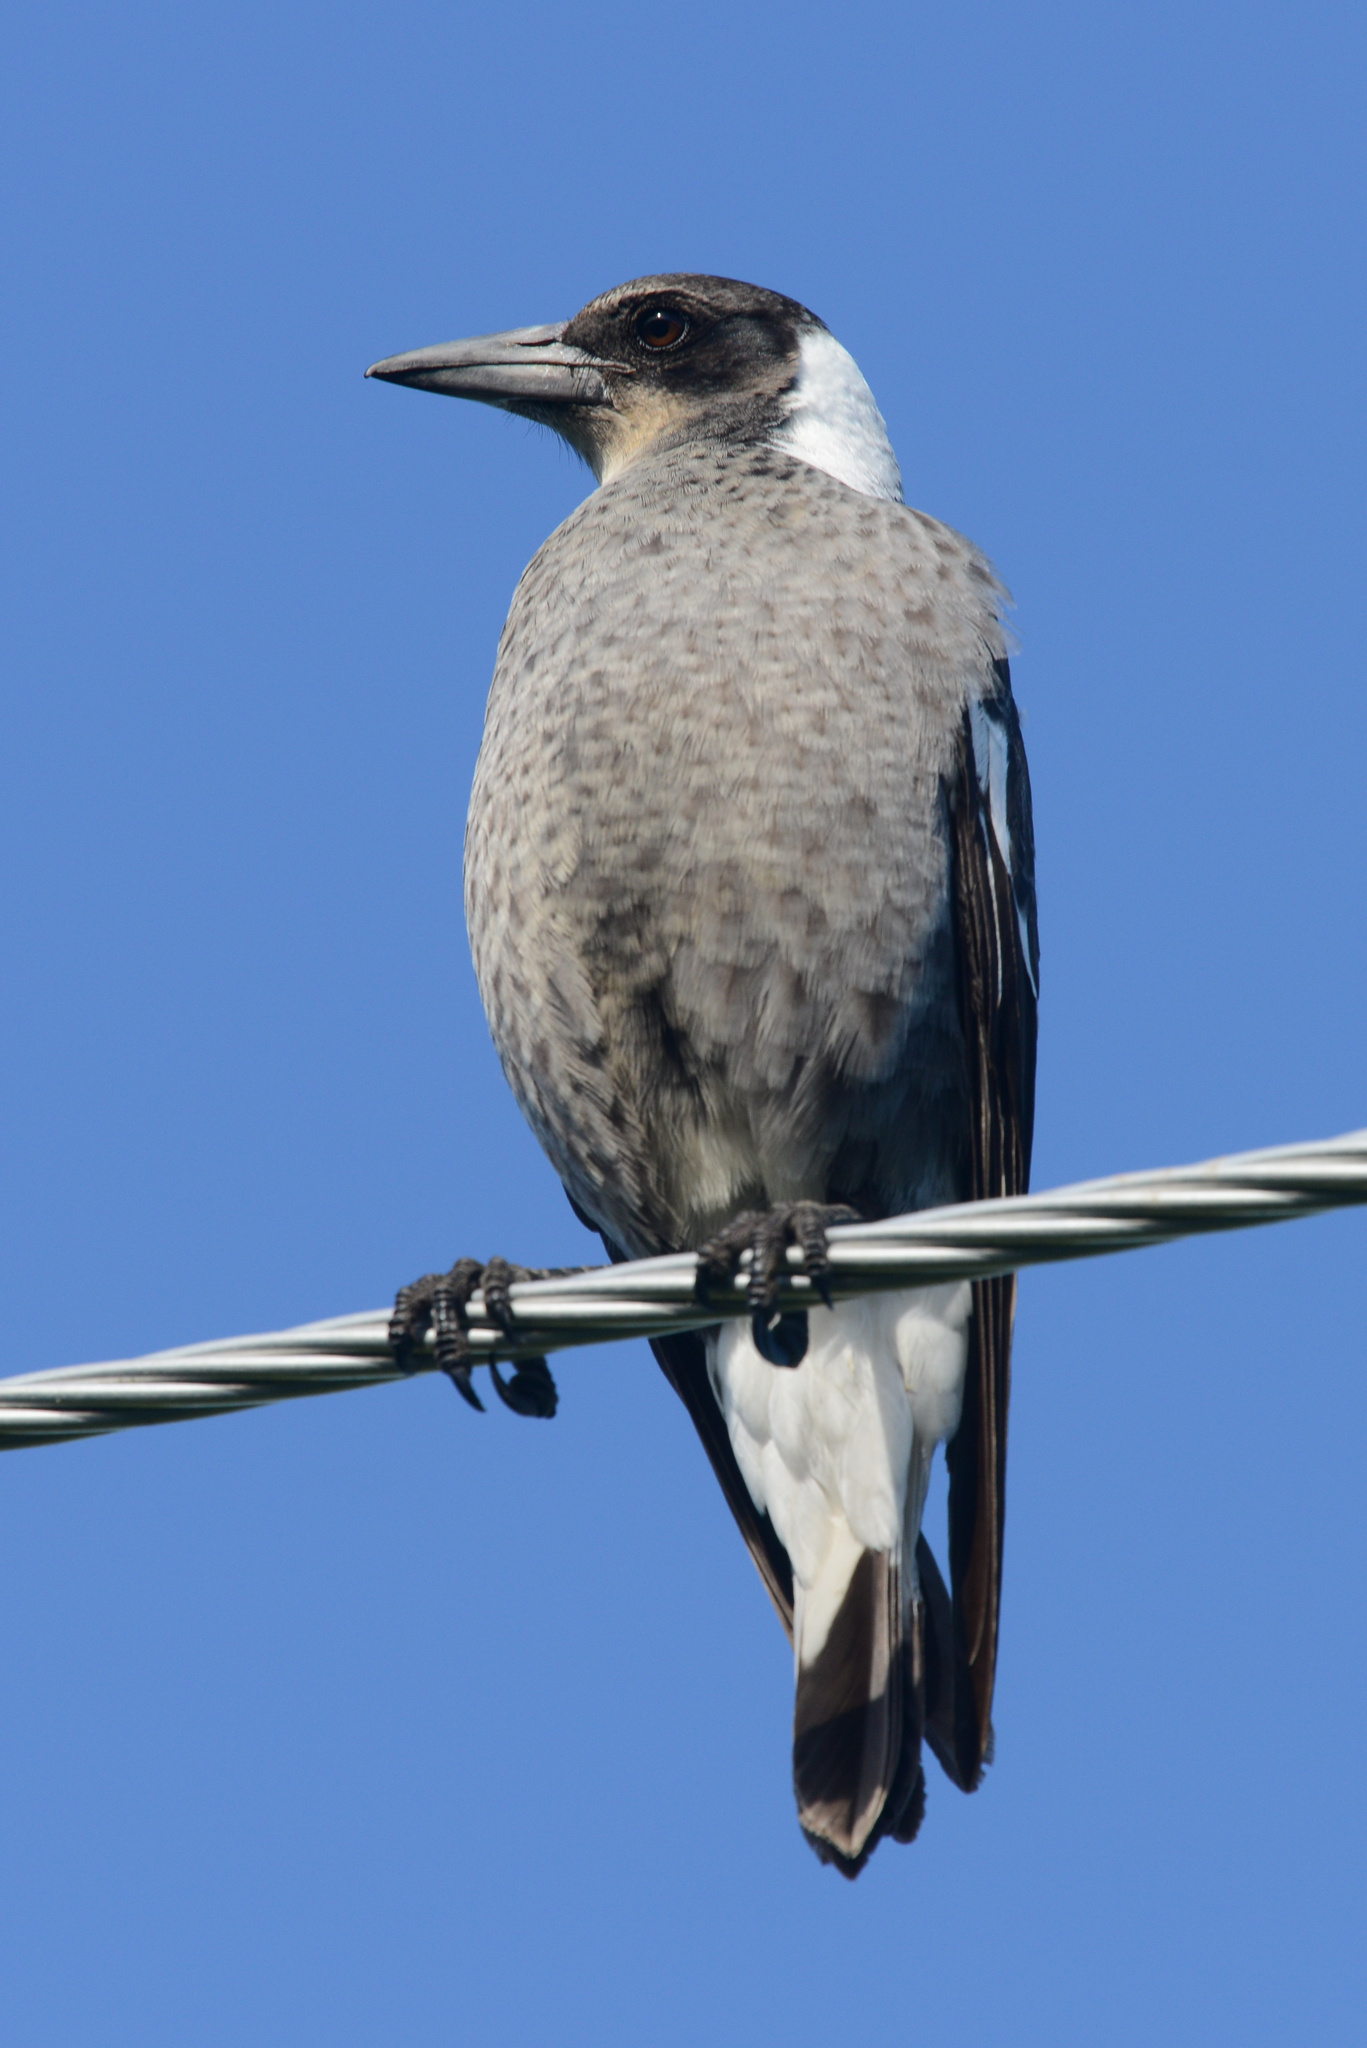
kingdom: Animalia
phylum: Chordata
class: Aves
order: Passeriformes
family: Cracticidae
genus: Gymnorhina
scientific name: Gymnorhina tibicen
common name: Australian magpie
